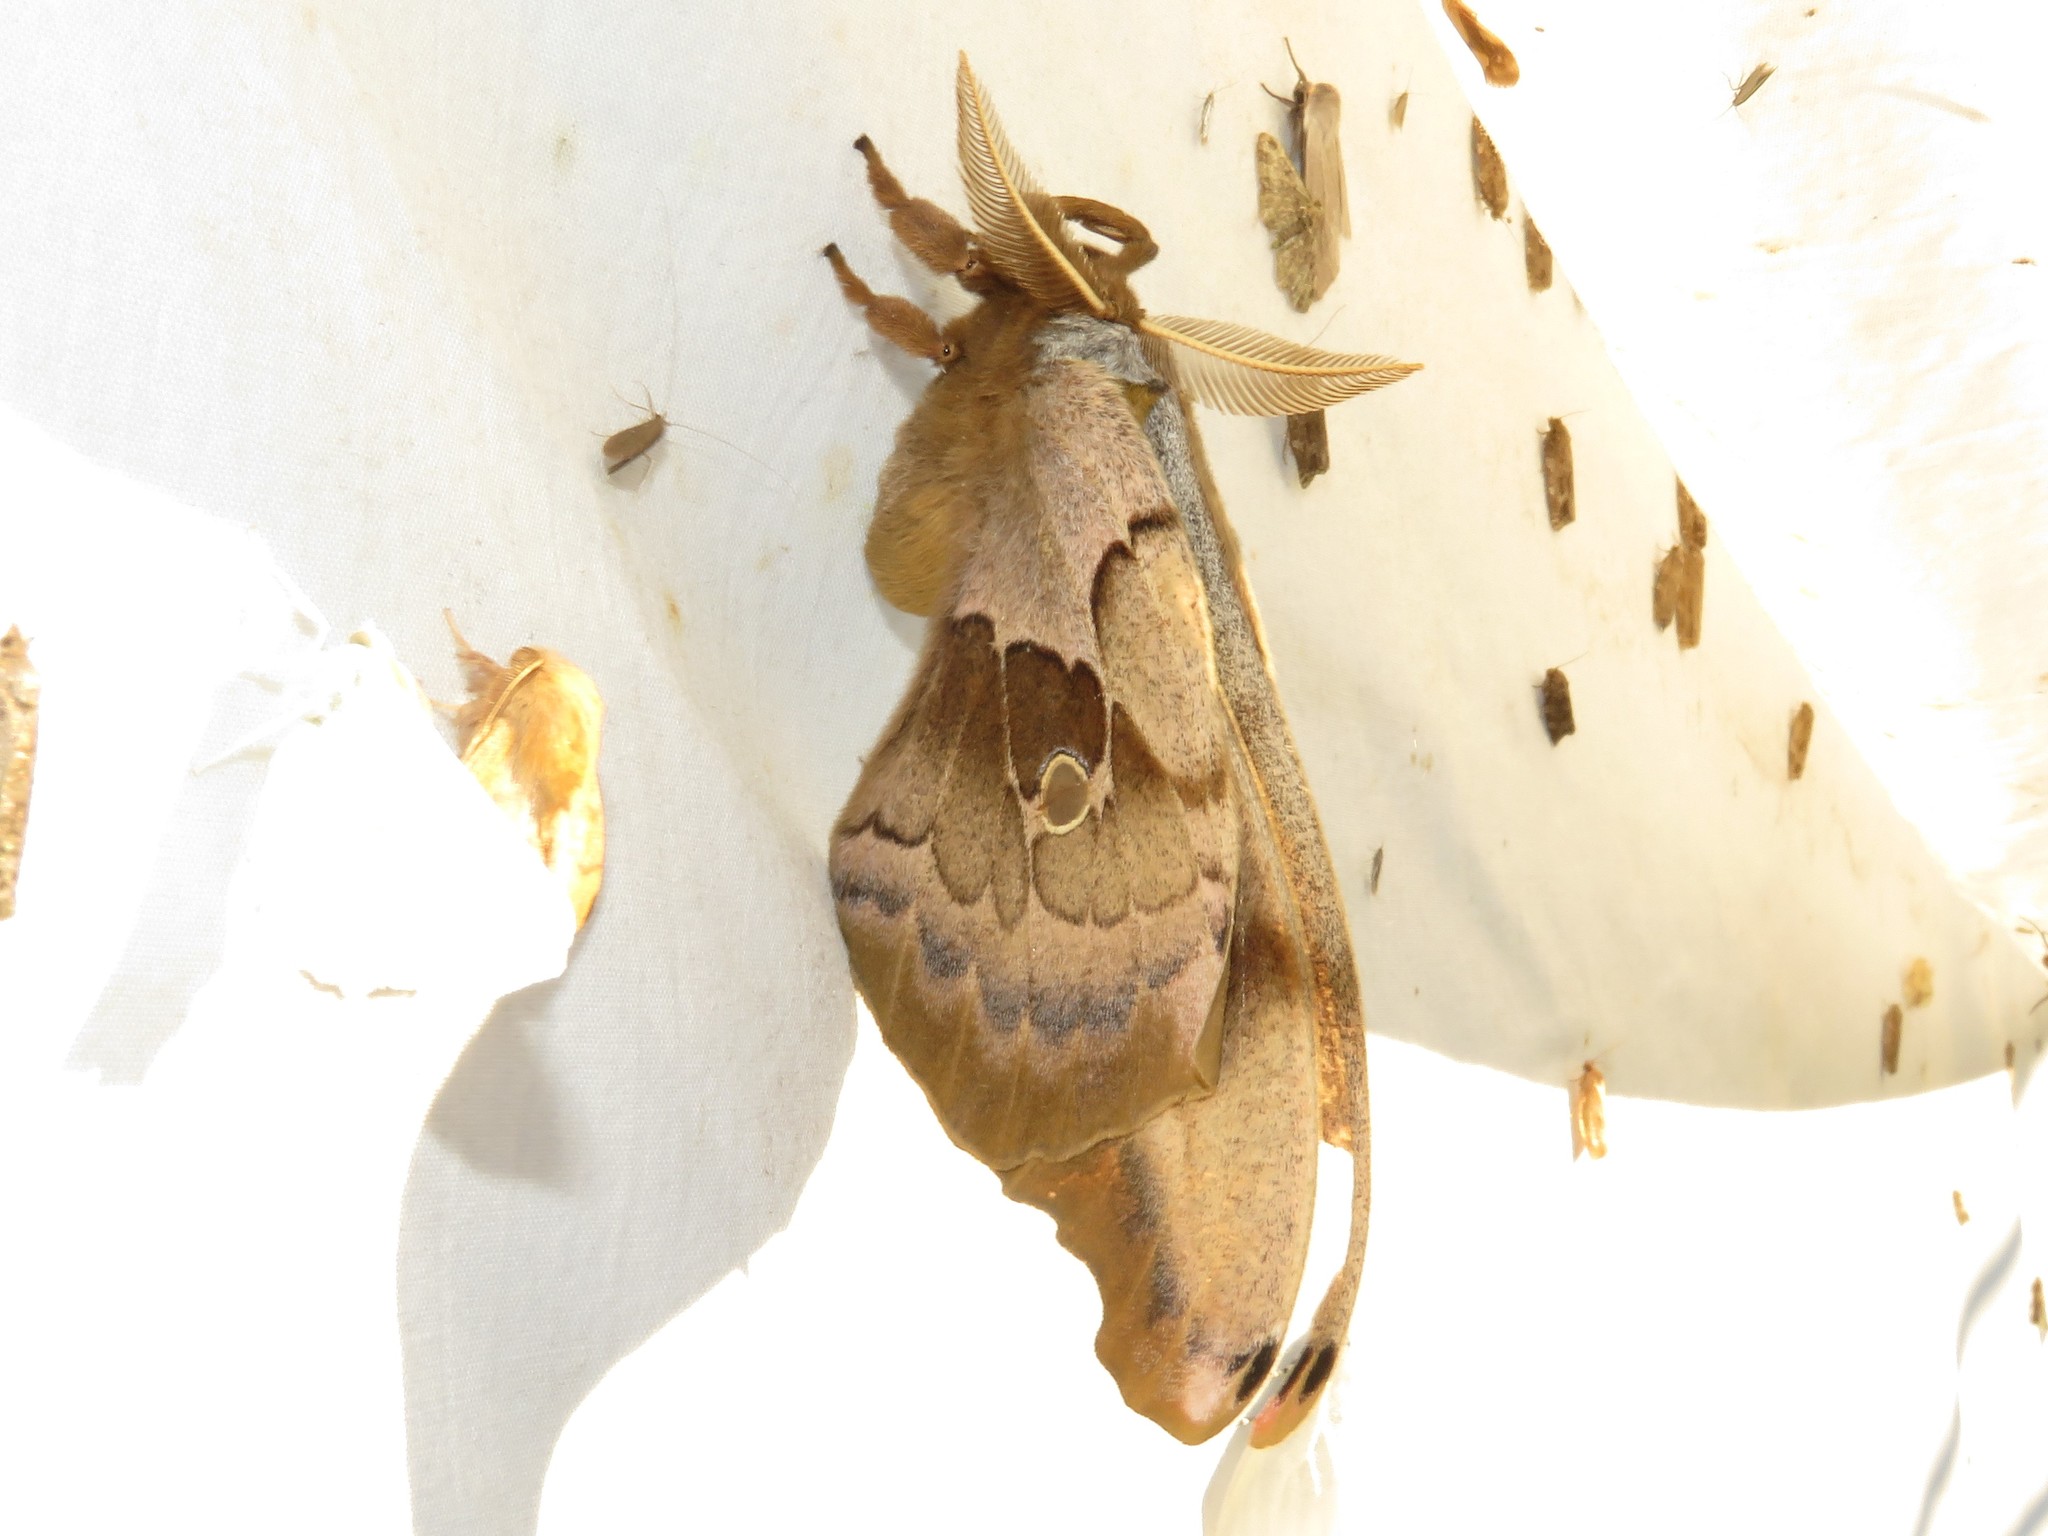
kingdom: Animalia
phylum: Arthropoda
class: Insecta
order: Lepidoptera
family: Saturniidae
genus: Antheraea
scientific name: Antheraea polyphemus
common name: Polyphemus moth
